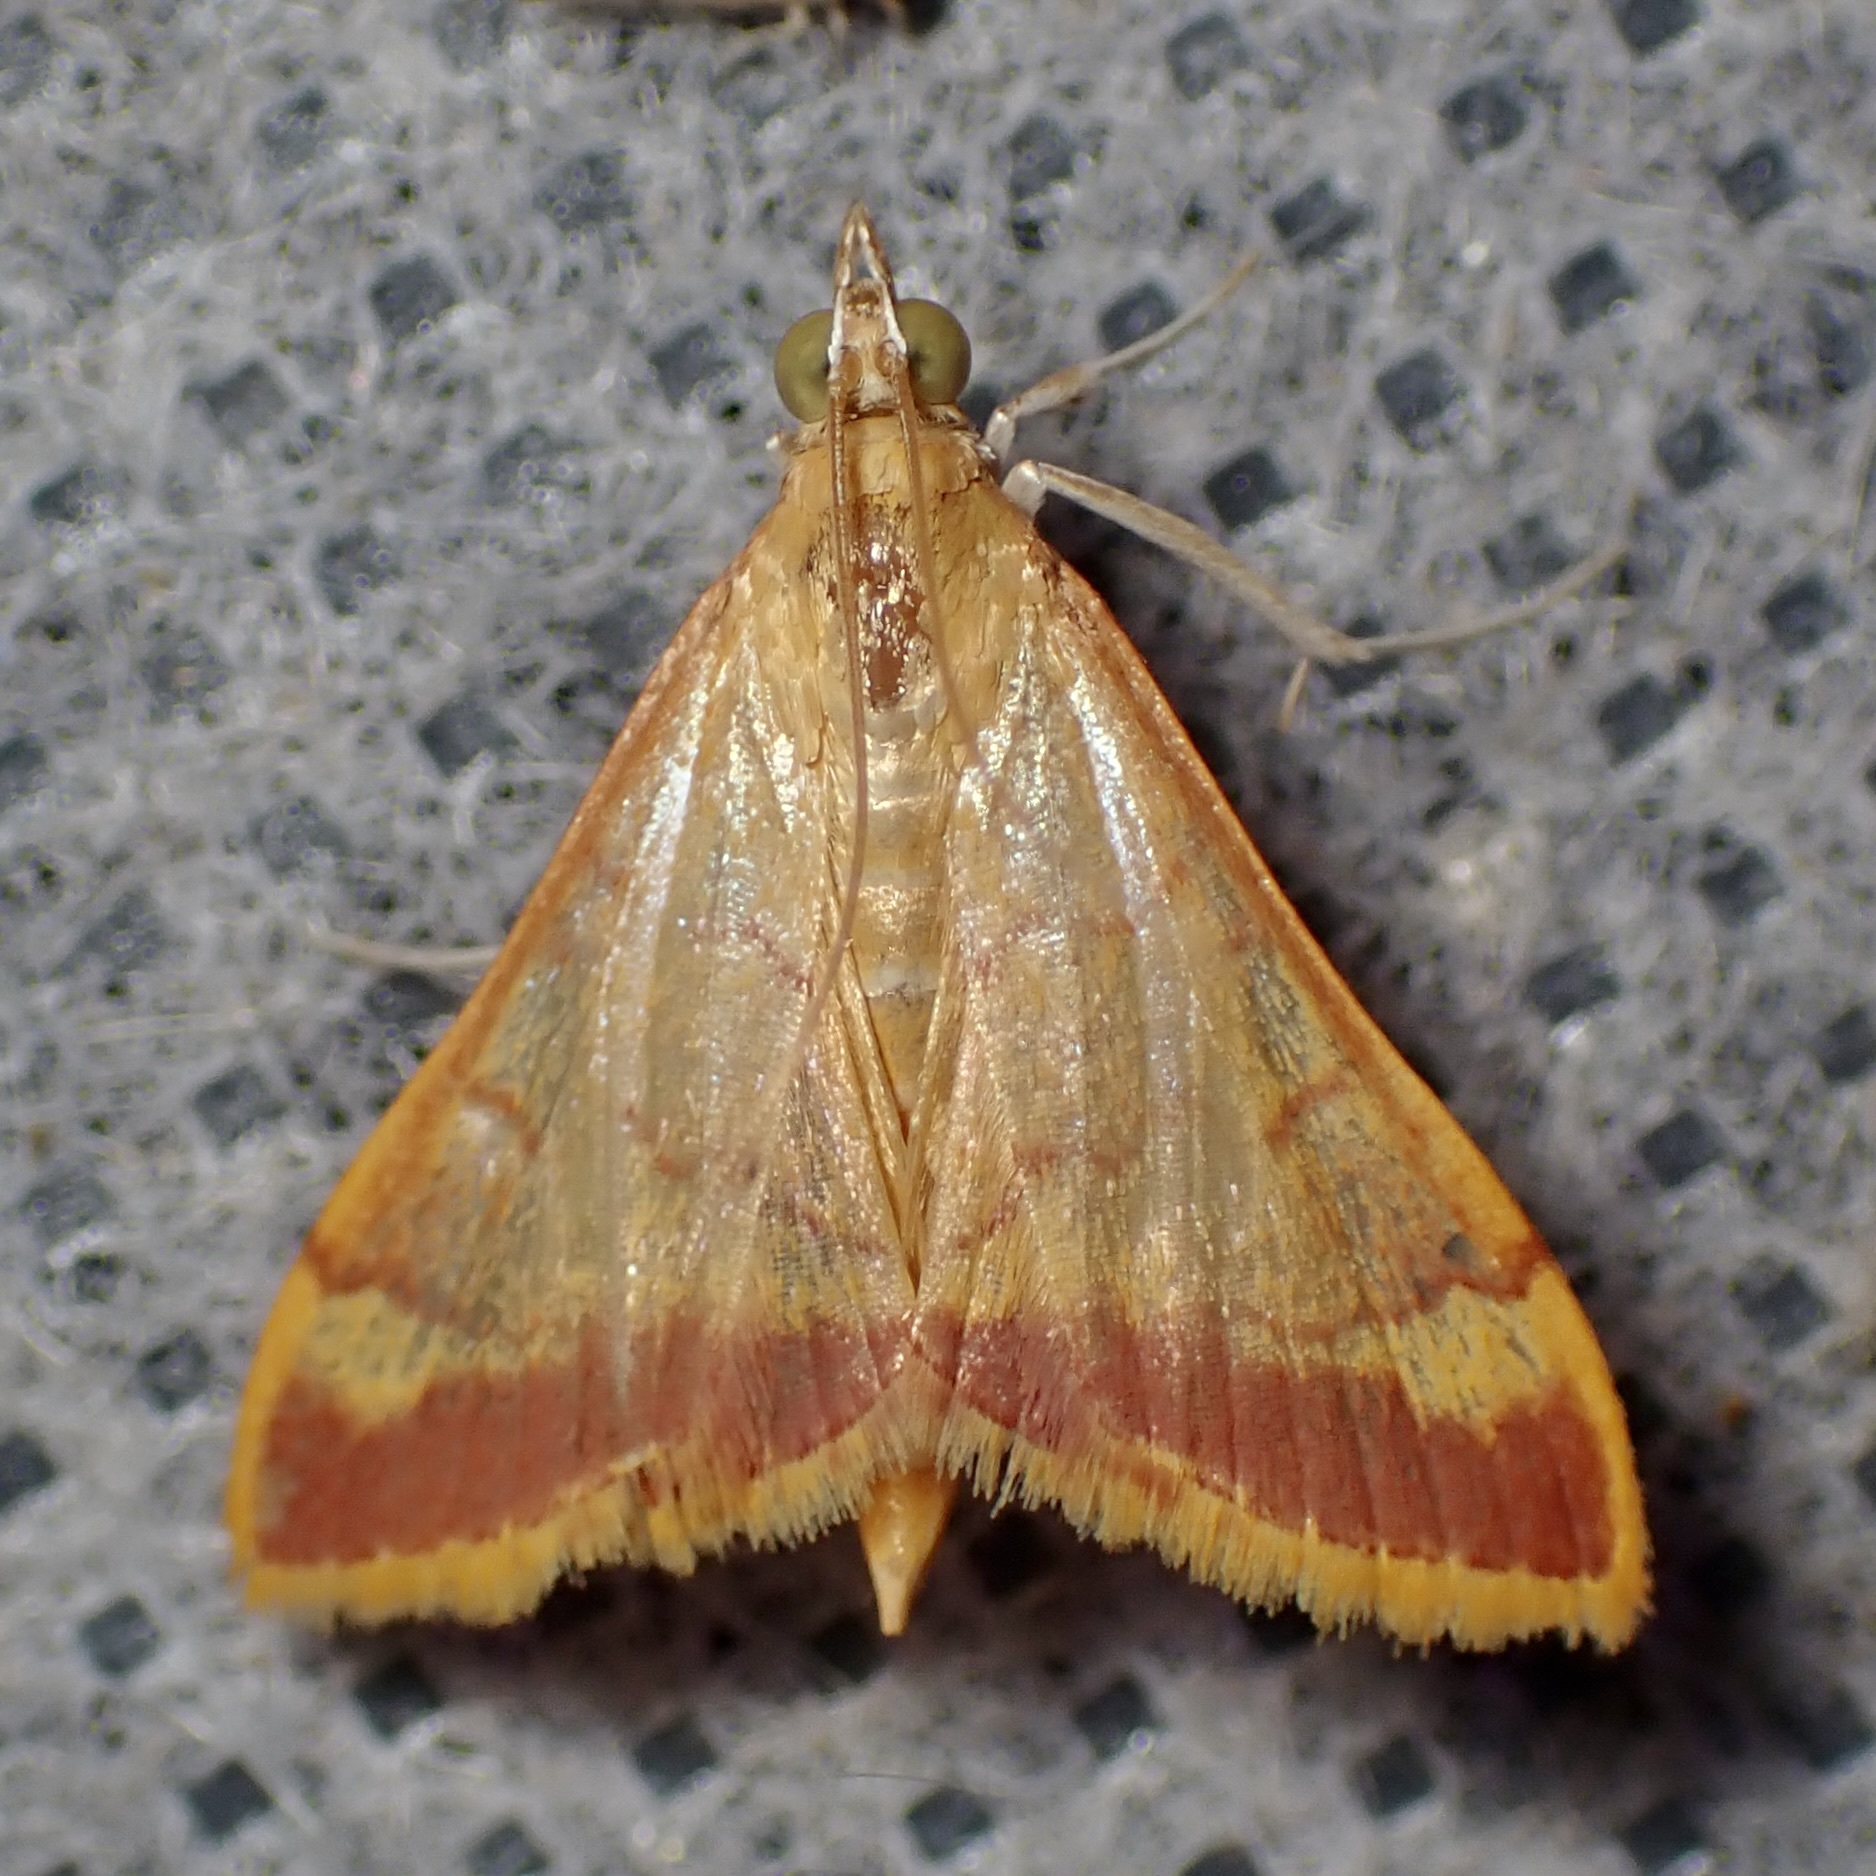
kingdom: Animalia
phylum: Arthropoda
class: Insecta
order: Lepidoptera
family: Crambidae
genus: Pyrausta
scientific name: Pyrausta pseudonythesalis
